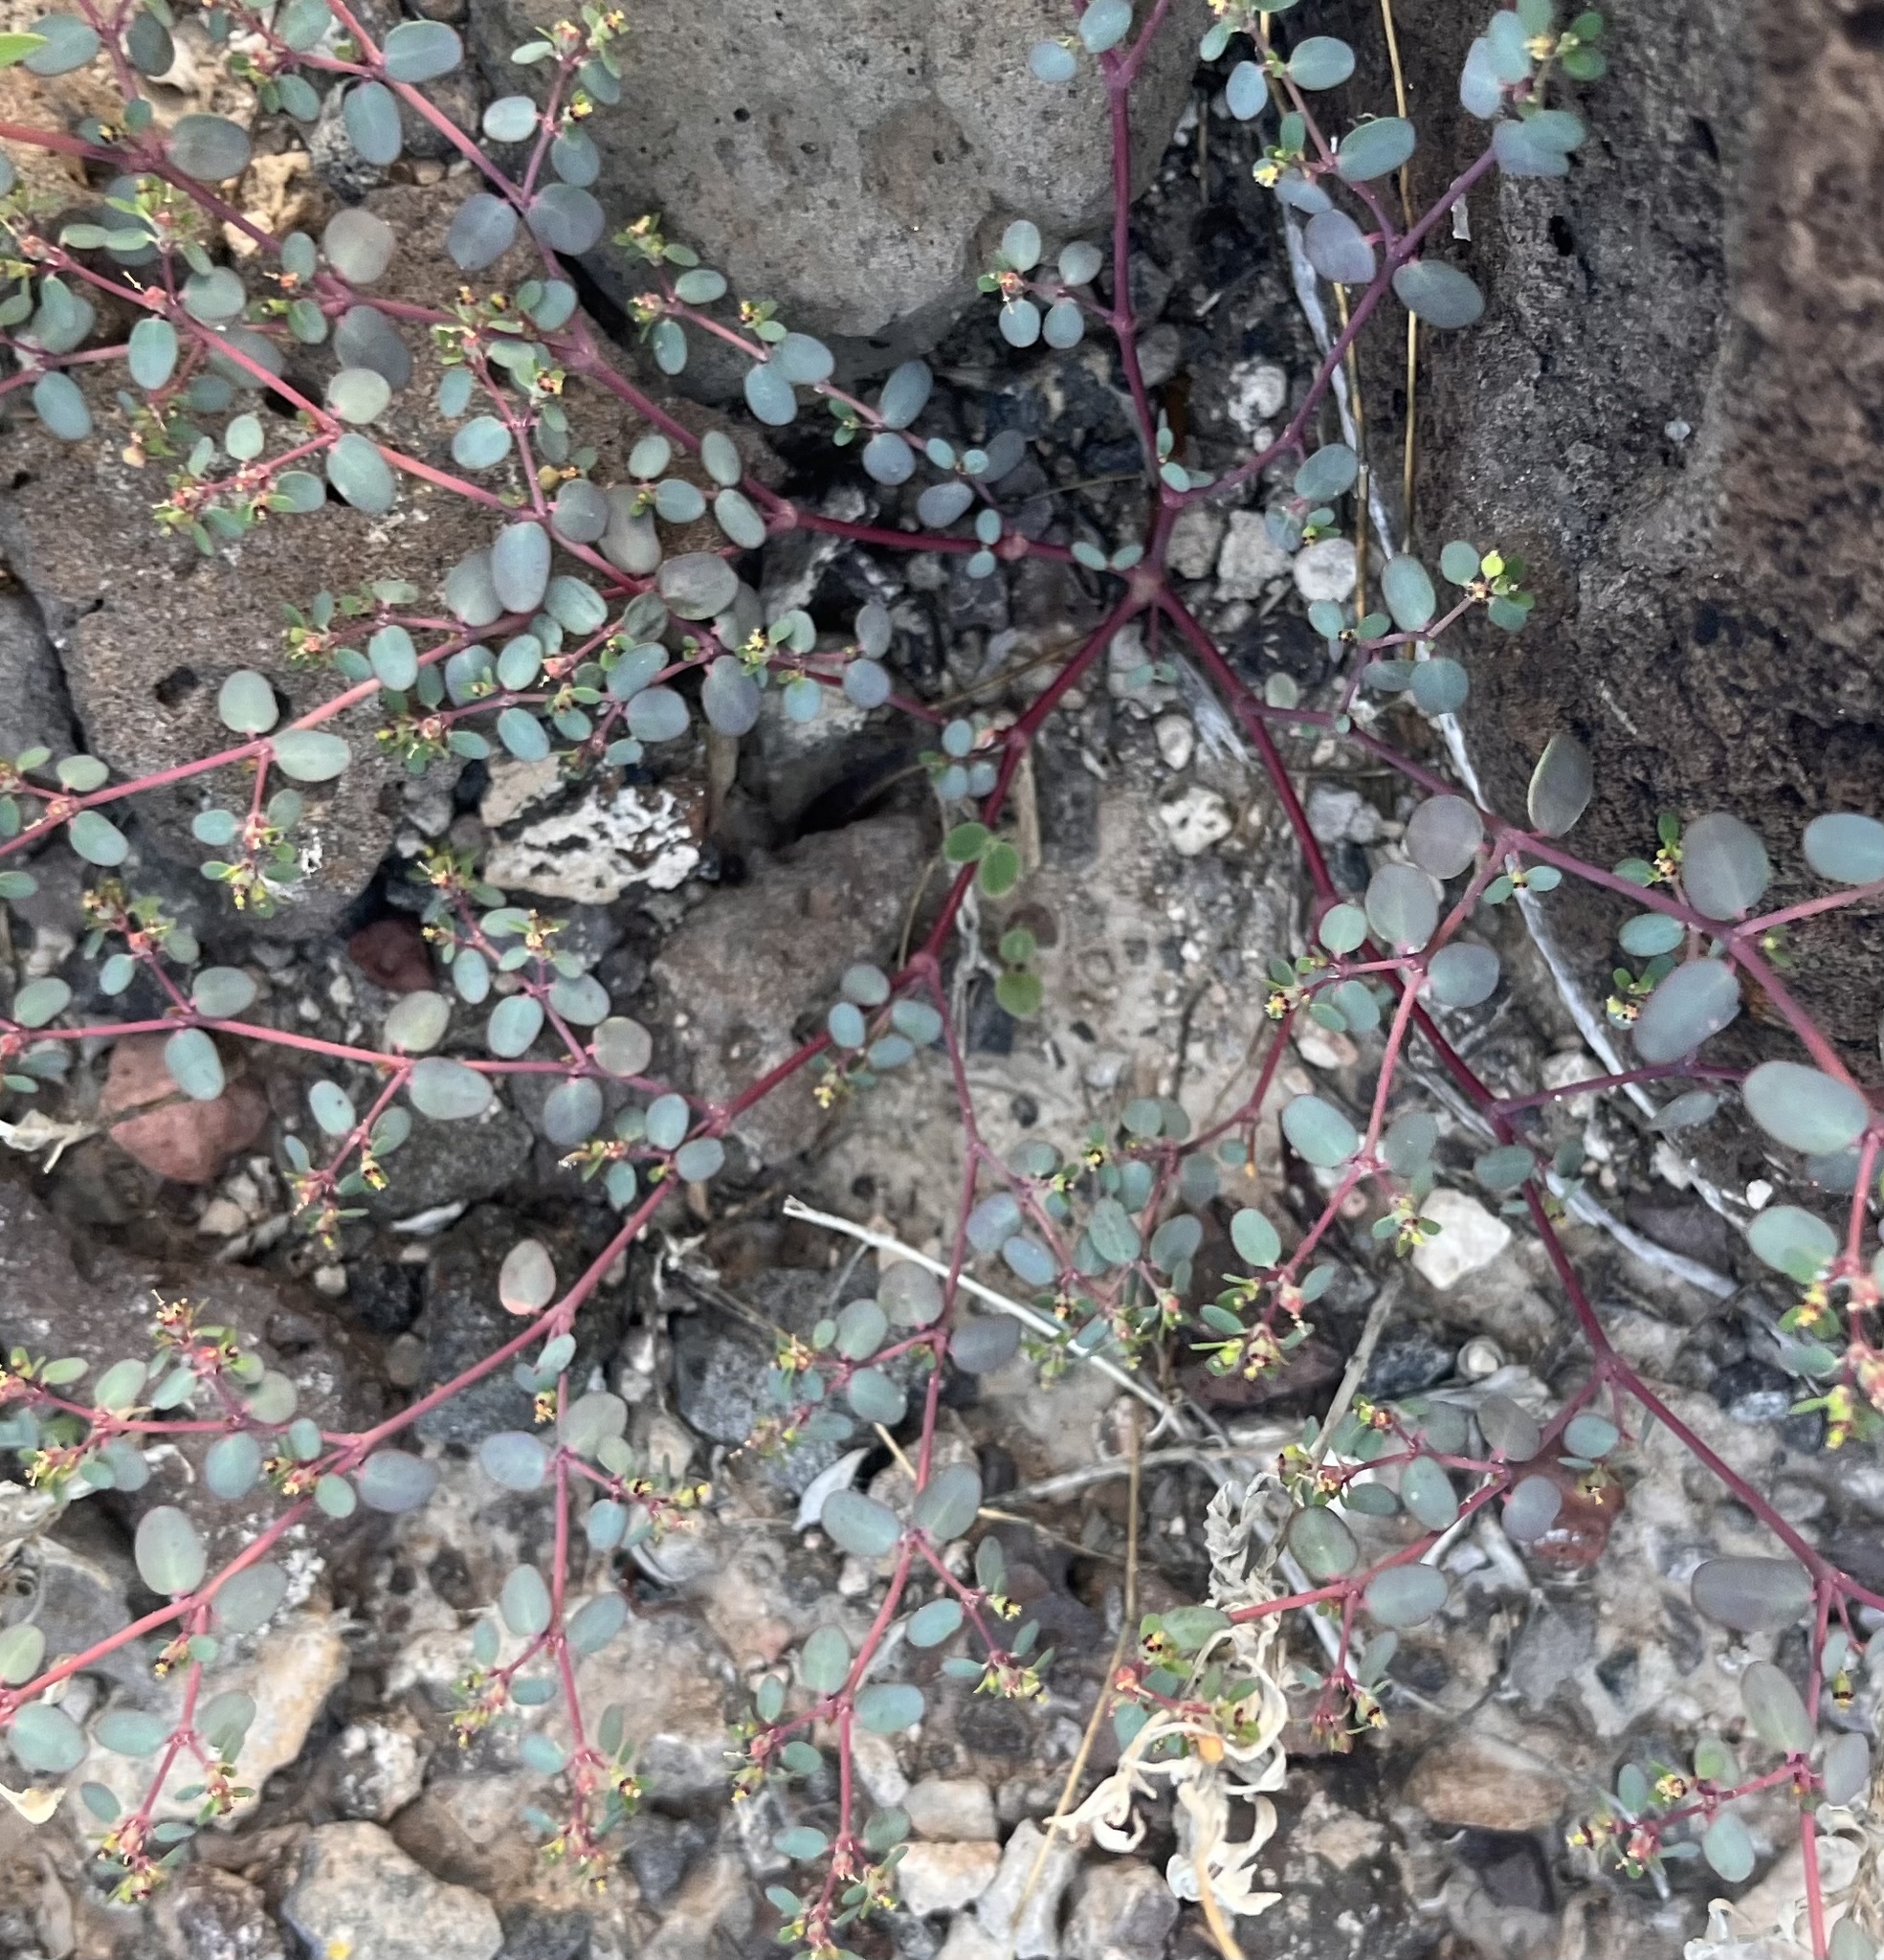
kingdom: Plantae
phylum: Tracheophyta
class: Magnoliopsida
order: Malpighiales
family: Euphorbiaceae
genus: Euphorbia
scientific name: Euphorbia simulans
